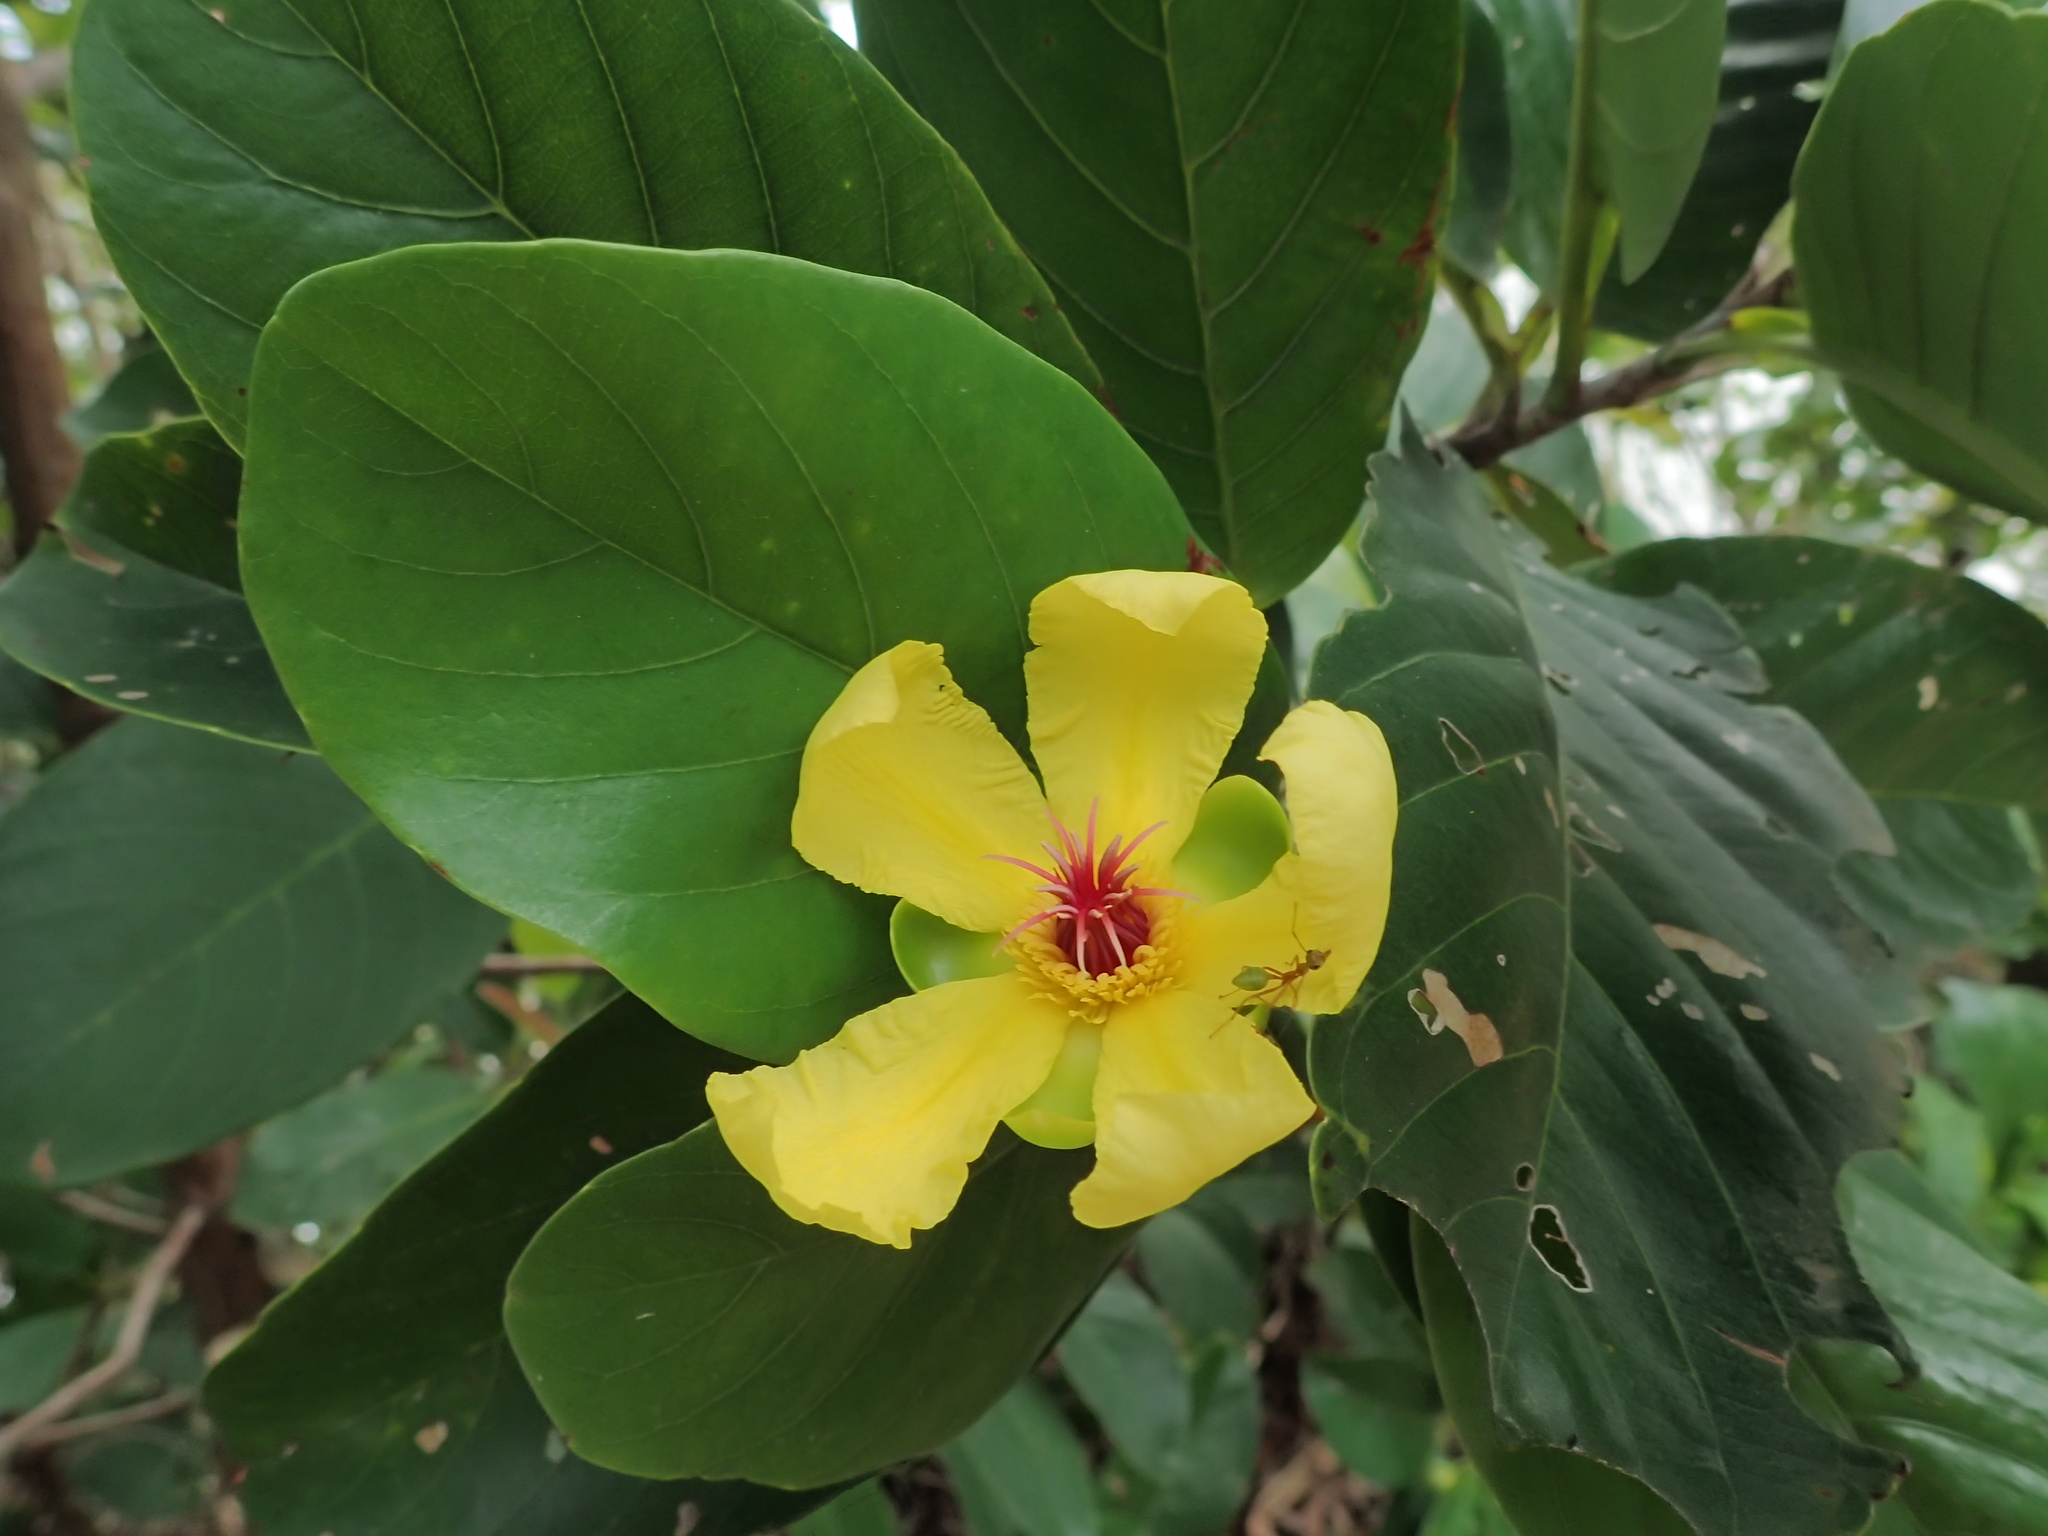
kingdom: Plantae
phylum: Tracheophyta
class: Magnoliopsida
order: Dilleniales
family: Dilleniaceae
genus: Dillenia
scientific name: Dillenia alata
